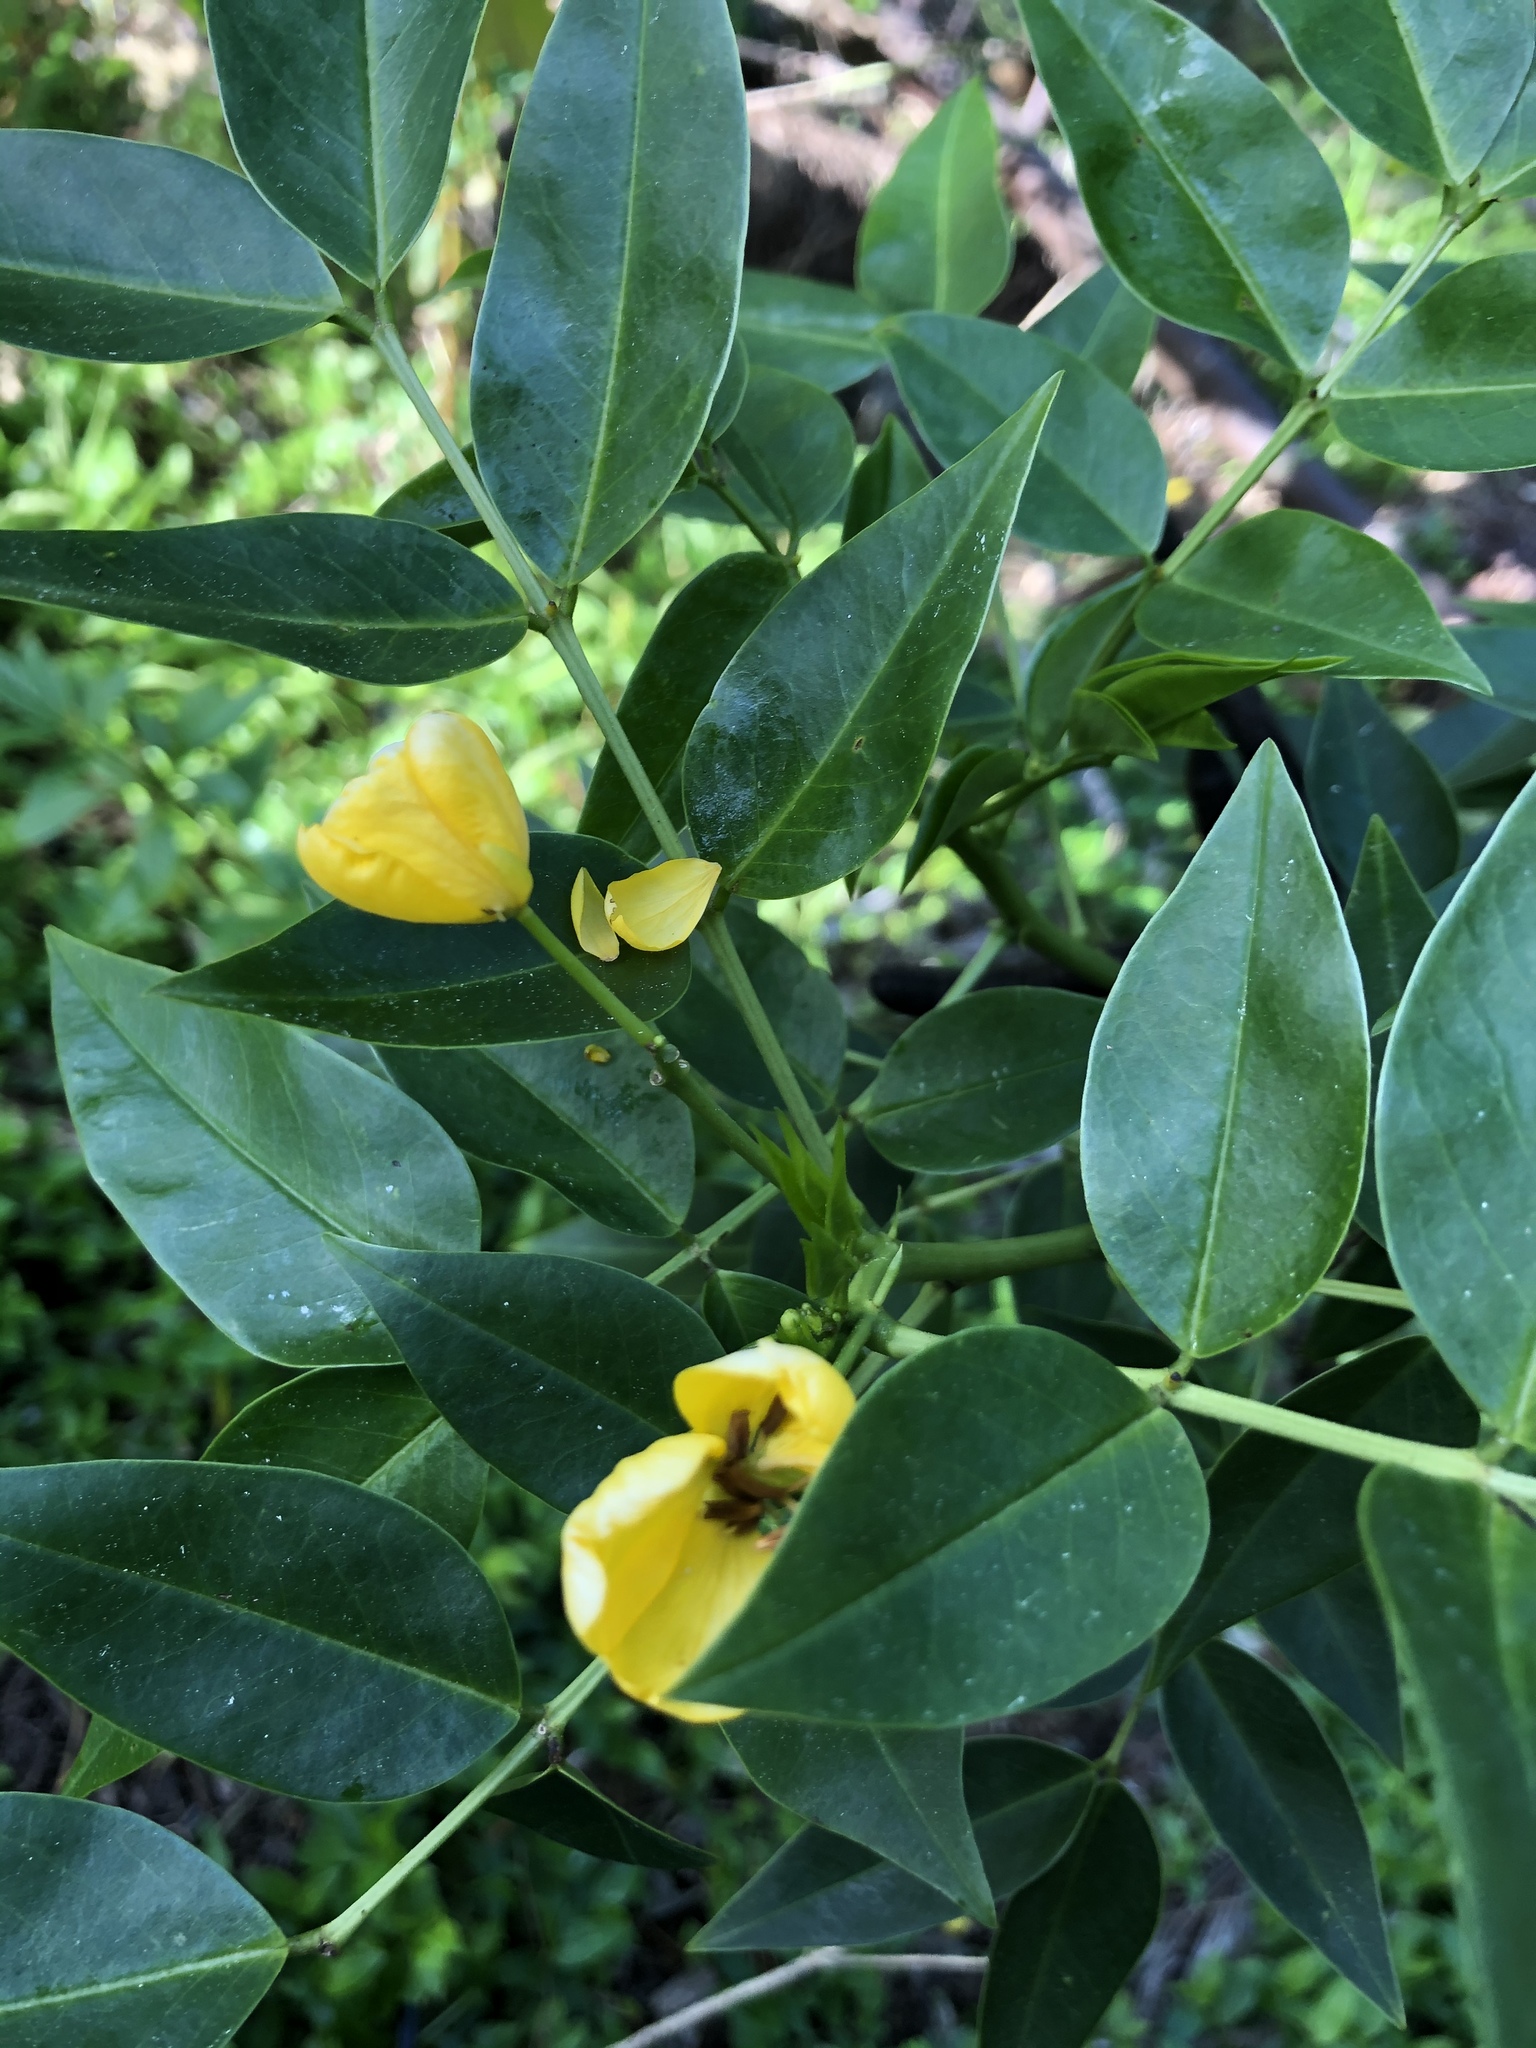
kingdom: Plantae
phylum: Tracheophyta
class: Magnoliopsida
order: Fabales
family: Fabaceae
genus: Senna
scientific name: Senna septemtrionalis
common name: Arsenic bush
